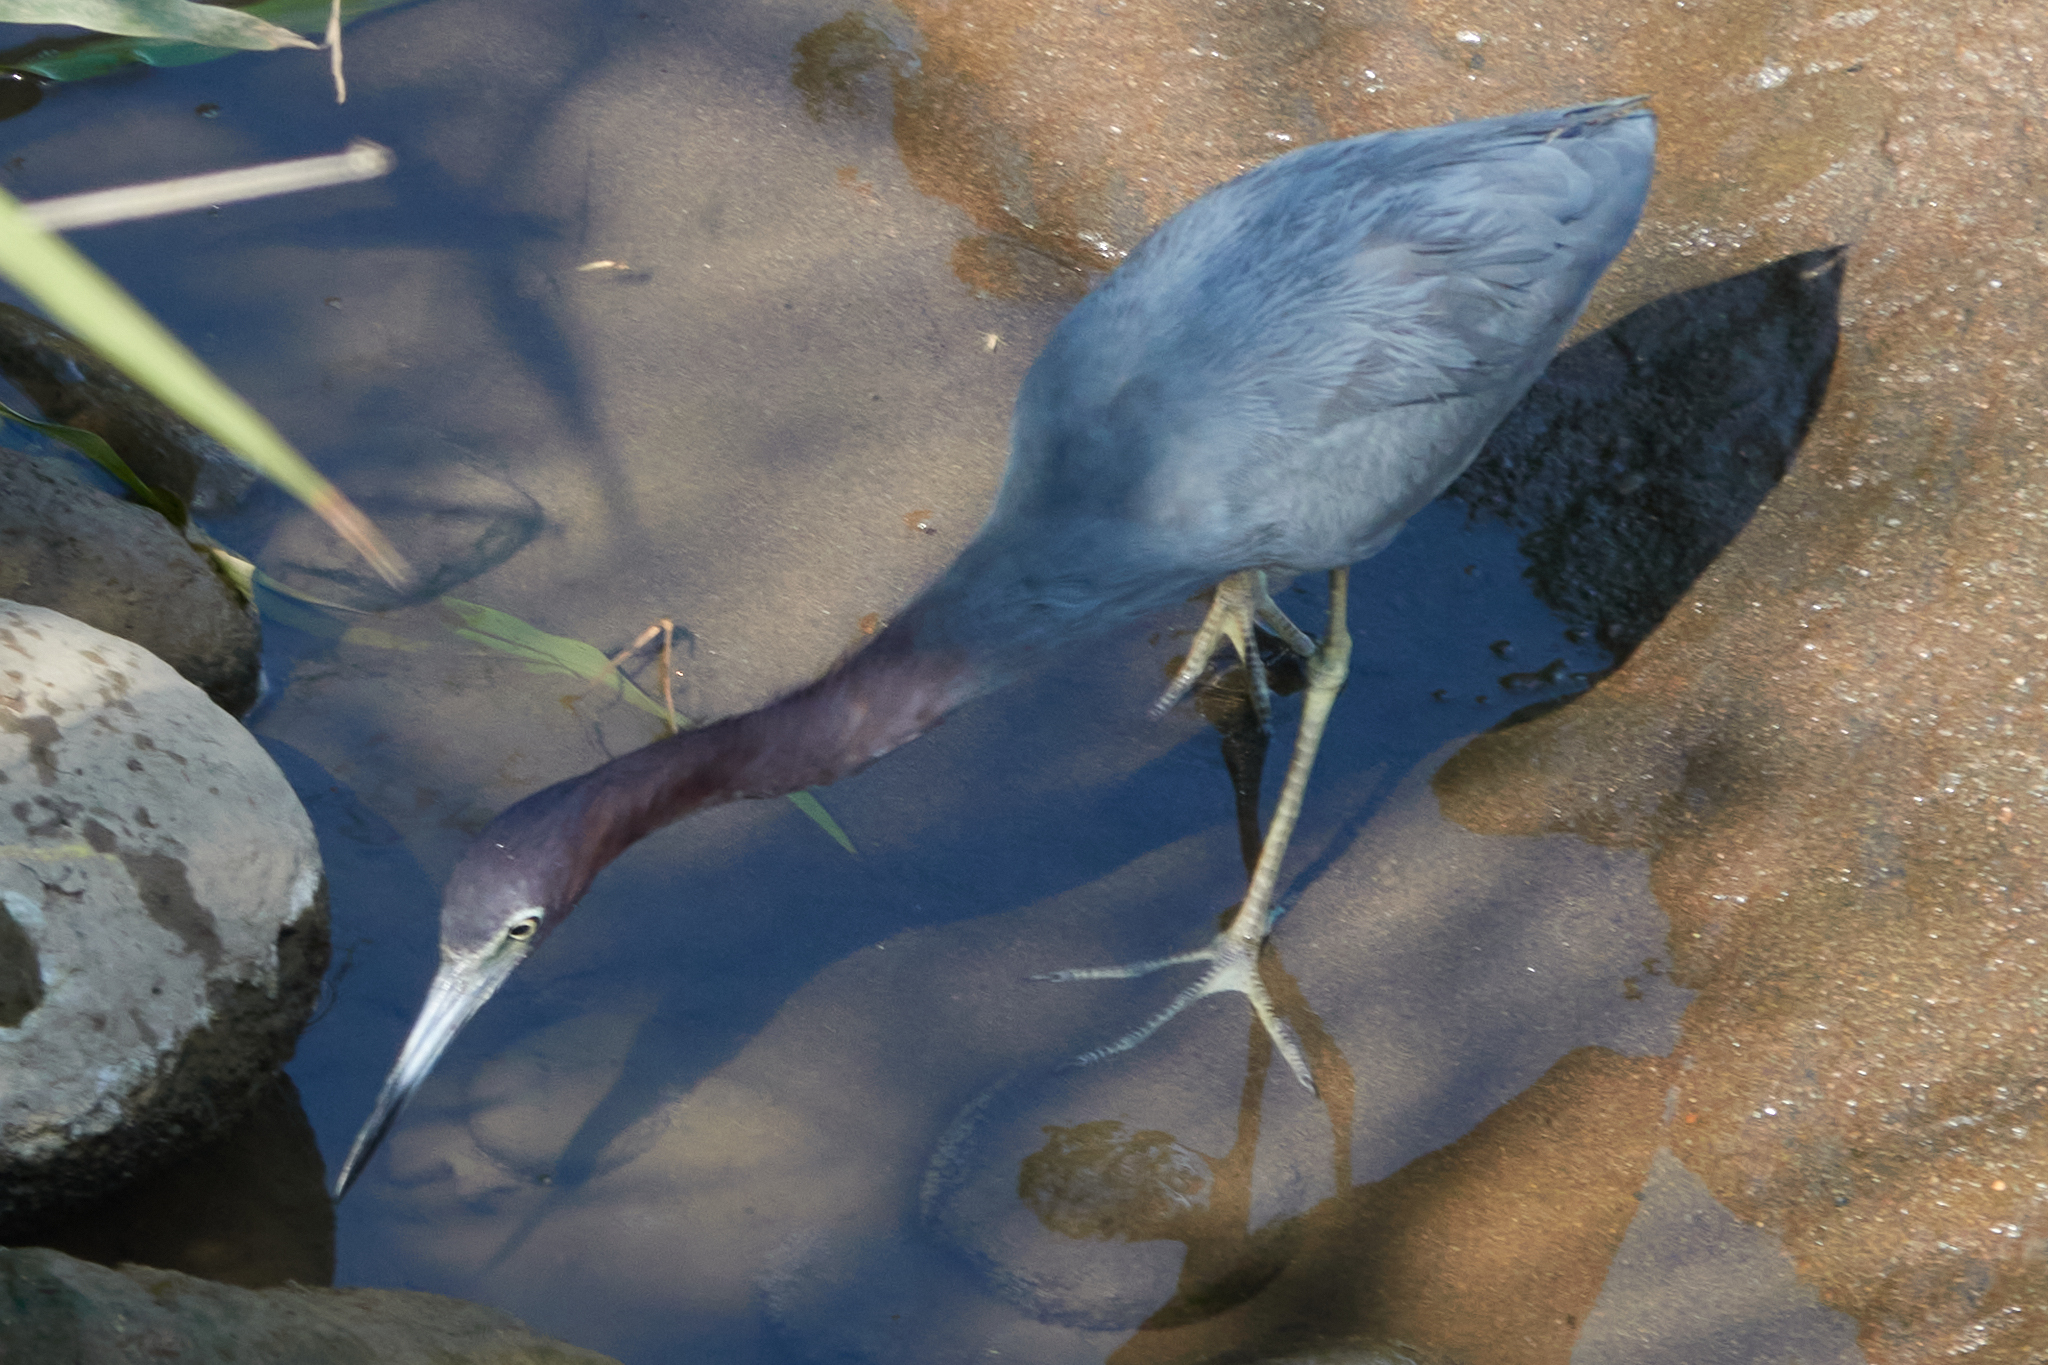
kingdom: Animalia
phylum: Chordata
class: Aves
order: Pelecaniformes
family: Ardeidae
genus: Egretta
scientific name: Egretta caerulea
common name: Little blue heron
